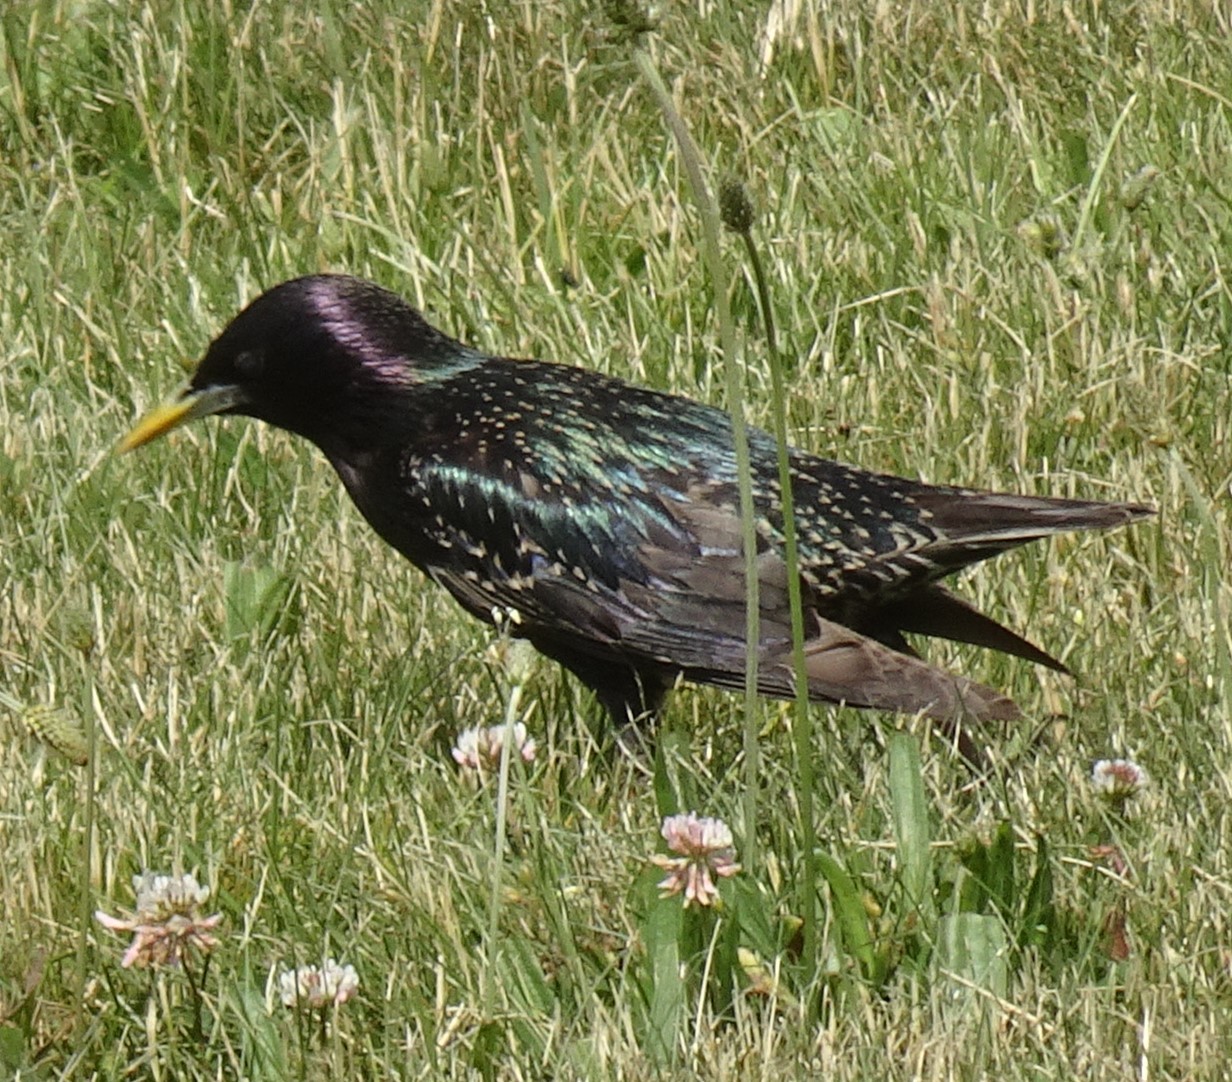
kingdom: Animalia
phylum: Chordata
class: Aves
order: Passeriformes
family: Sturnidae
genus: Sturnus
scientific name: Sturnus vulgaris
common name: Common starling
